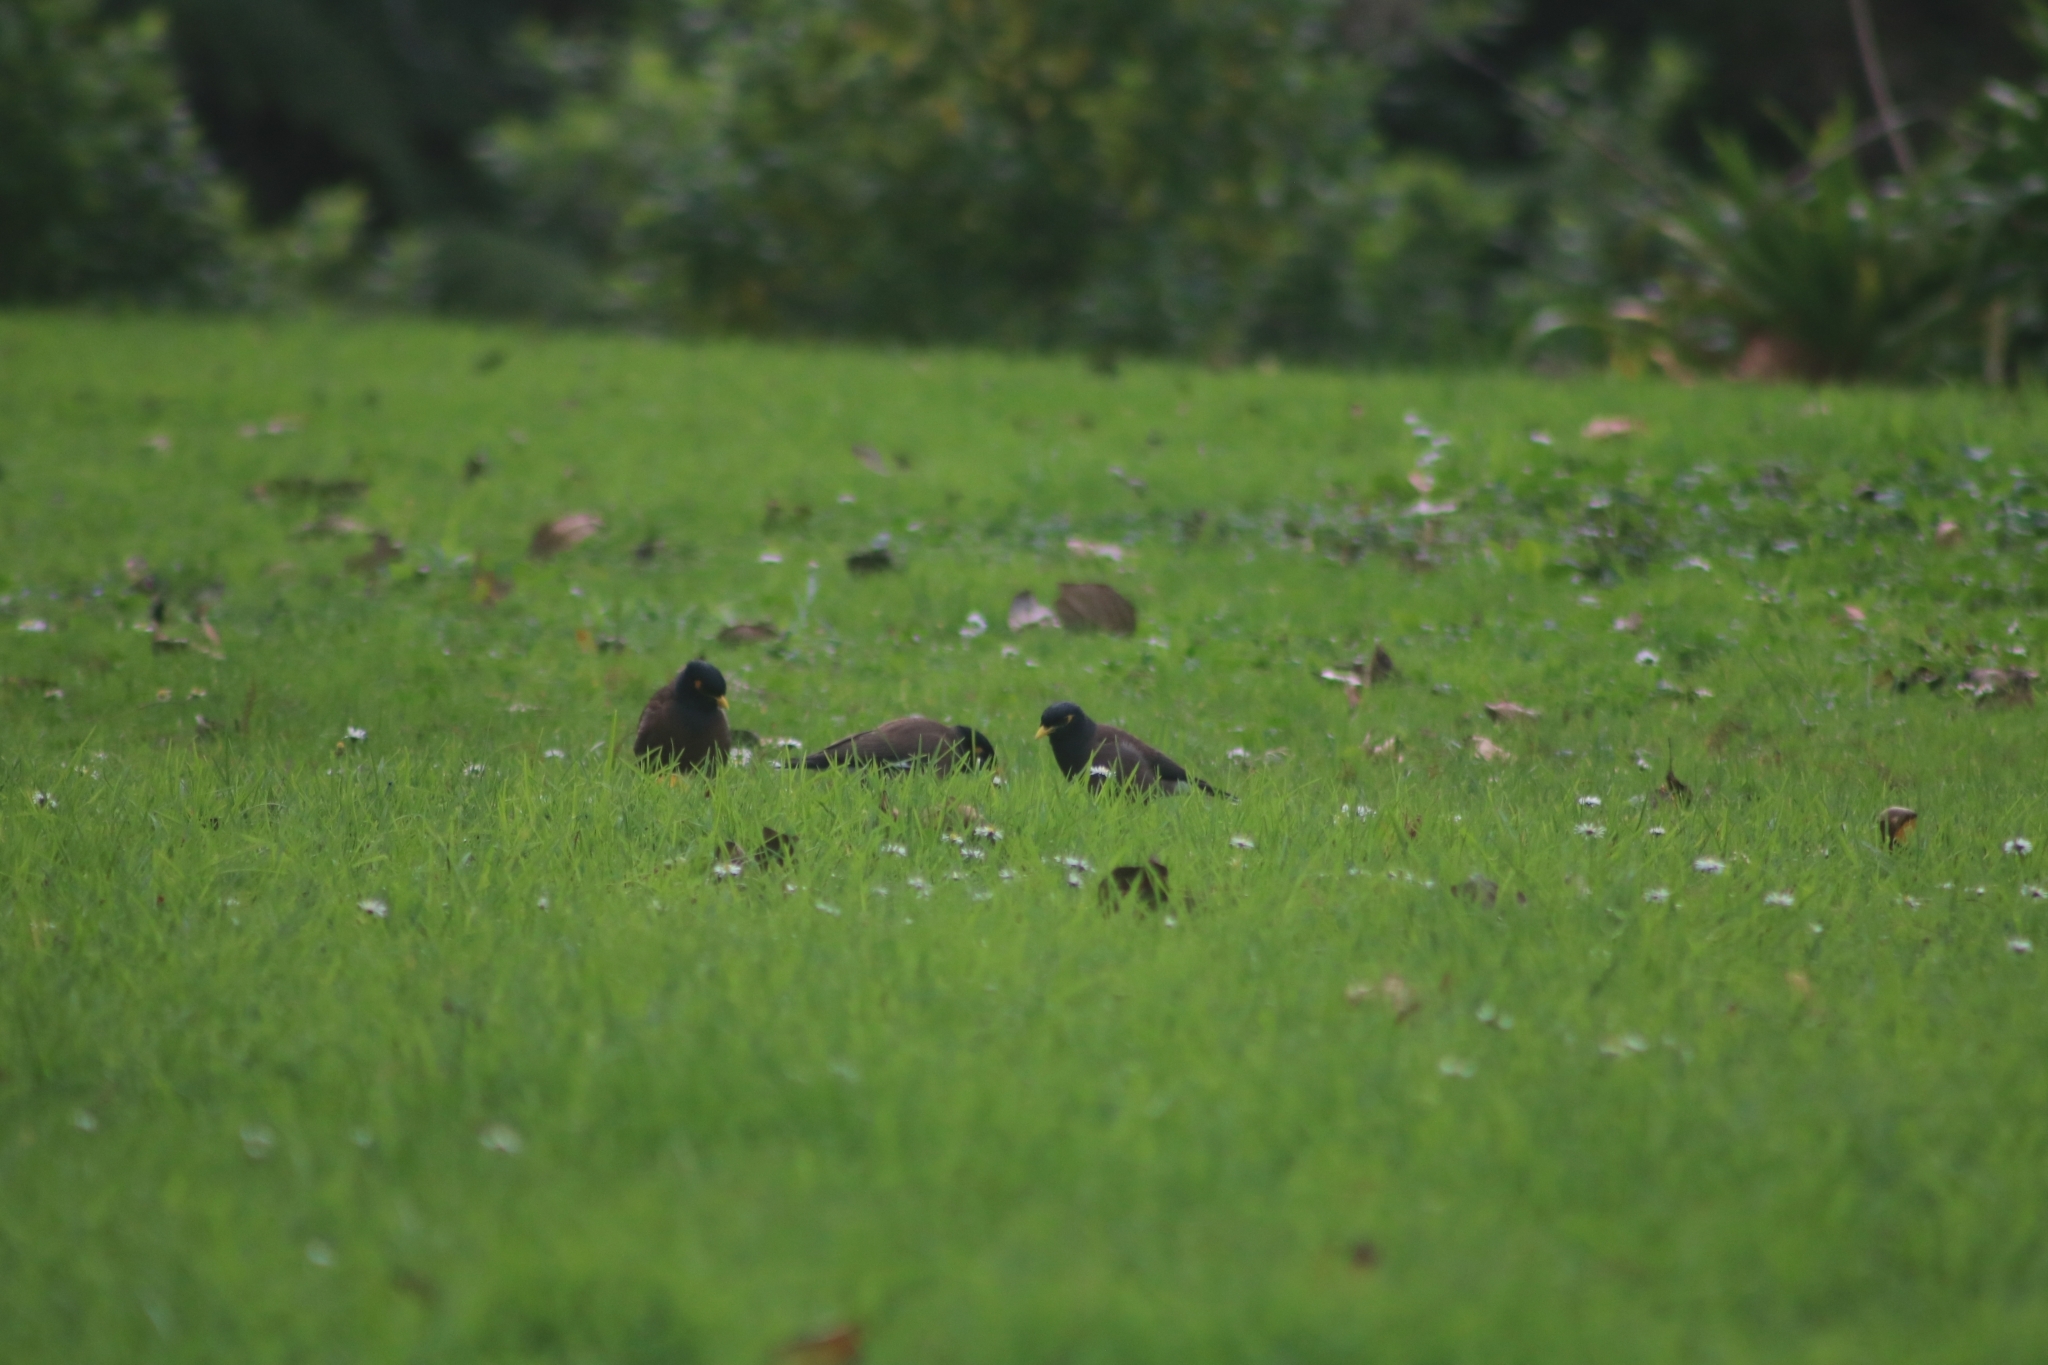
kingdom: Animalia
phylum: Chordata
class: Aves
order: Passeriformes
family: Sturnidae
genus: Acridotheres
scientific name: Acridotheres tristis
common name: Common myna
